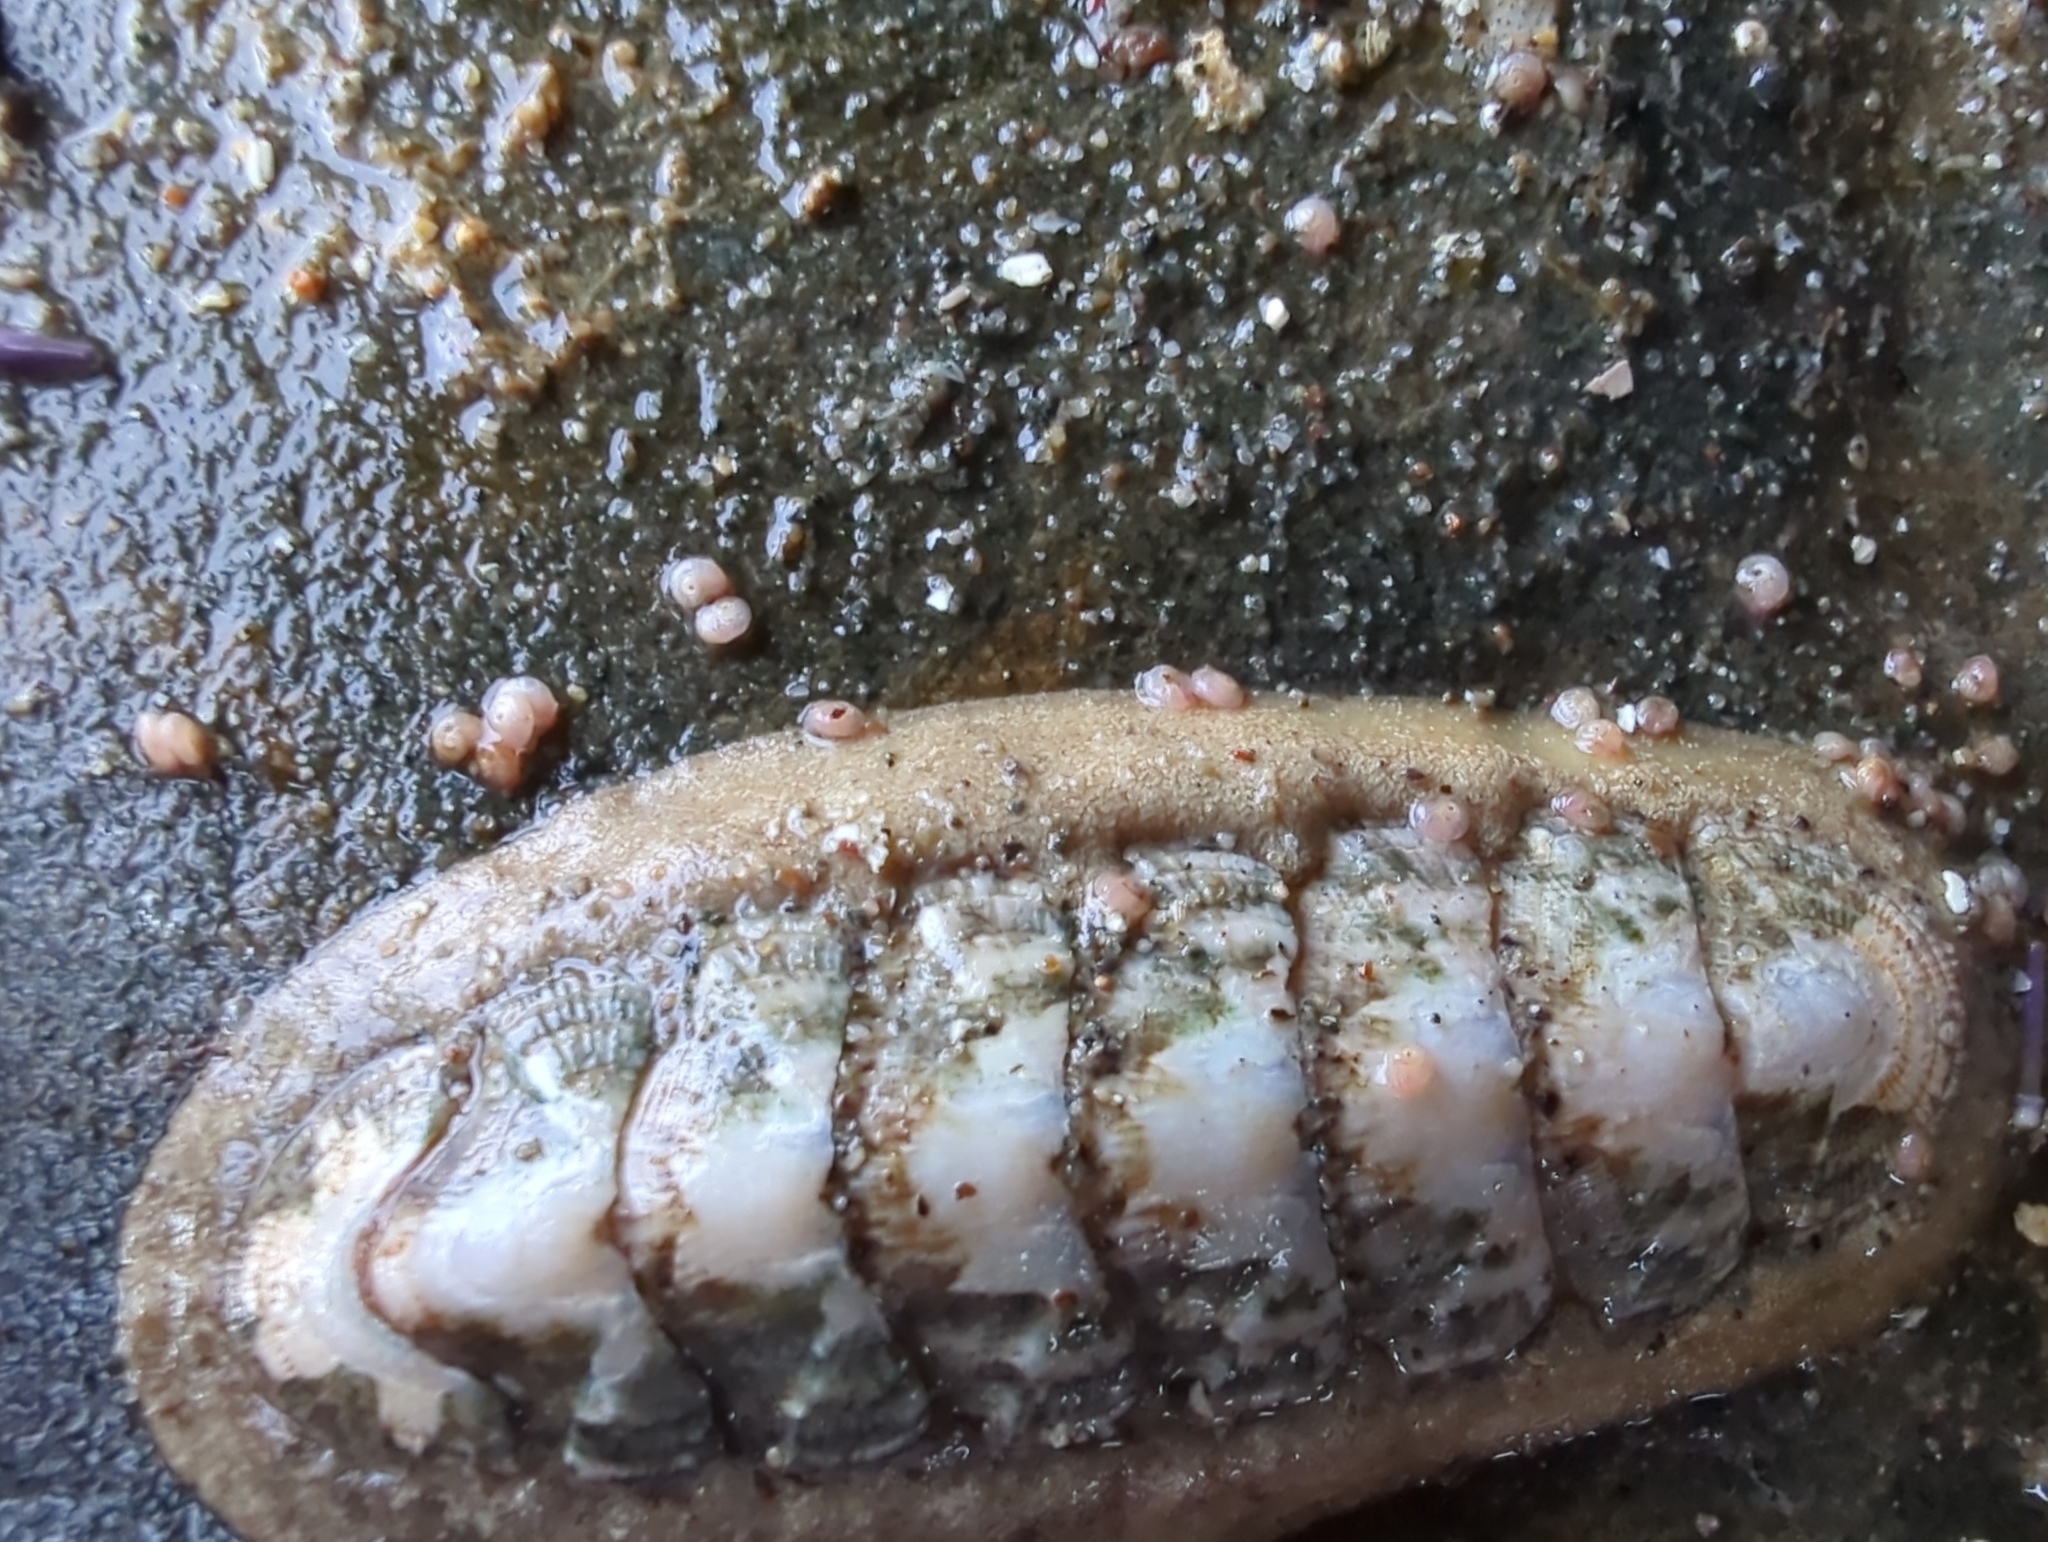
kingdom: Animalia
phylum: Mollusca
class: Polyplacophora
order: Chitonida
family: Ischnochitonidae
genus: Stenoplax
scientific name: Stenoplax heathiana
